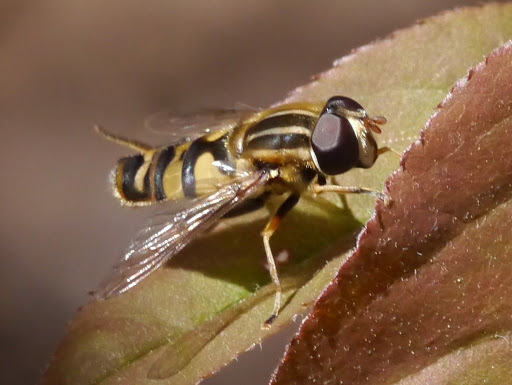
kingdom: Animalia
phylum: Arthropoda
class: Insecta
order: Diptera
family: Syrphidae
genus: Helophilus
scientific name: Helophilus fasciatus
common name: Narrow-headed marsh fly
